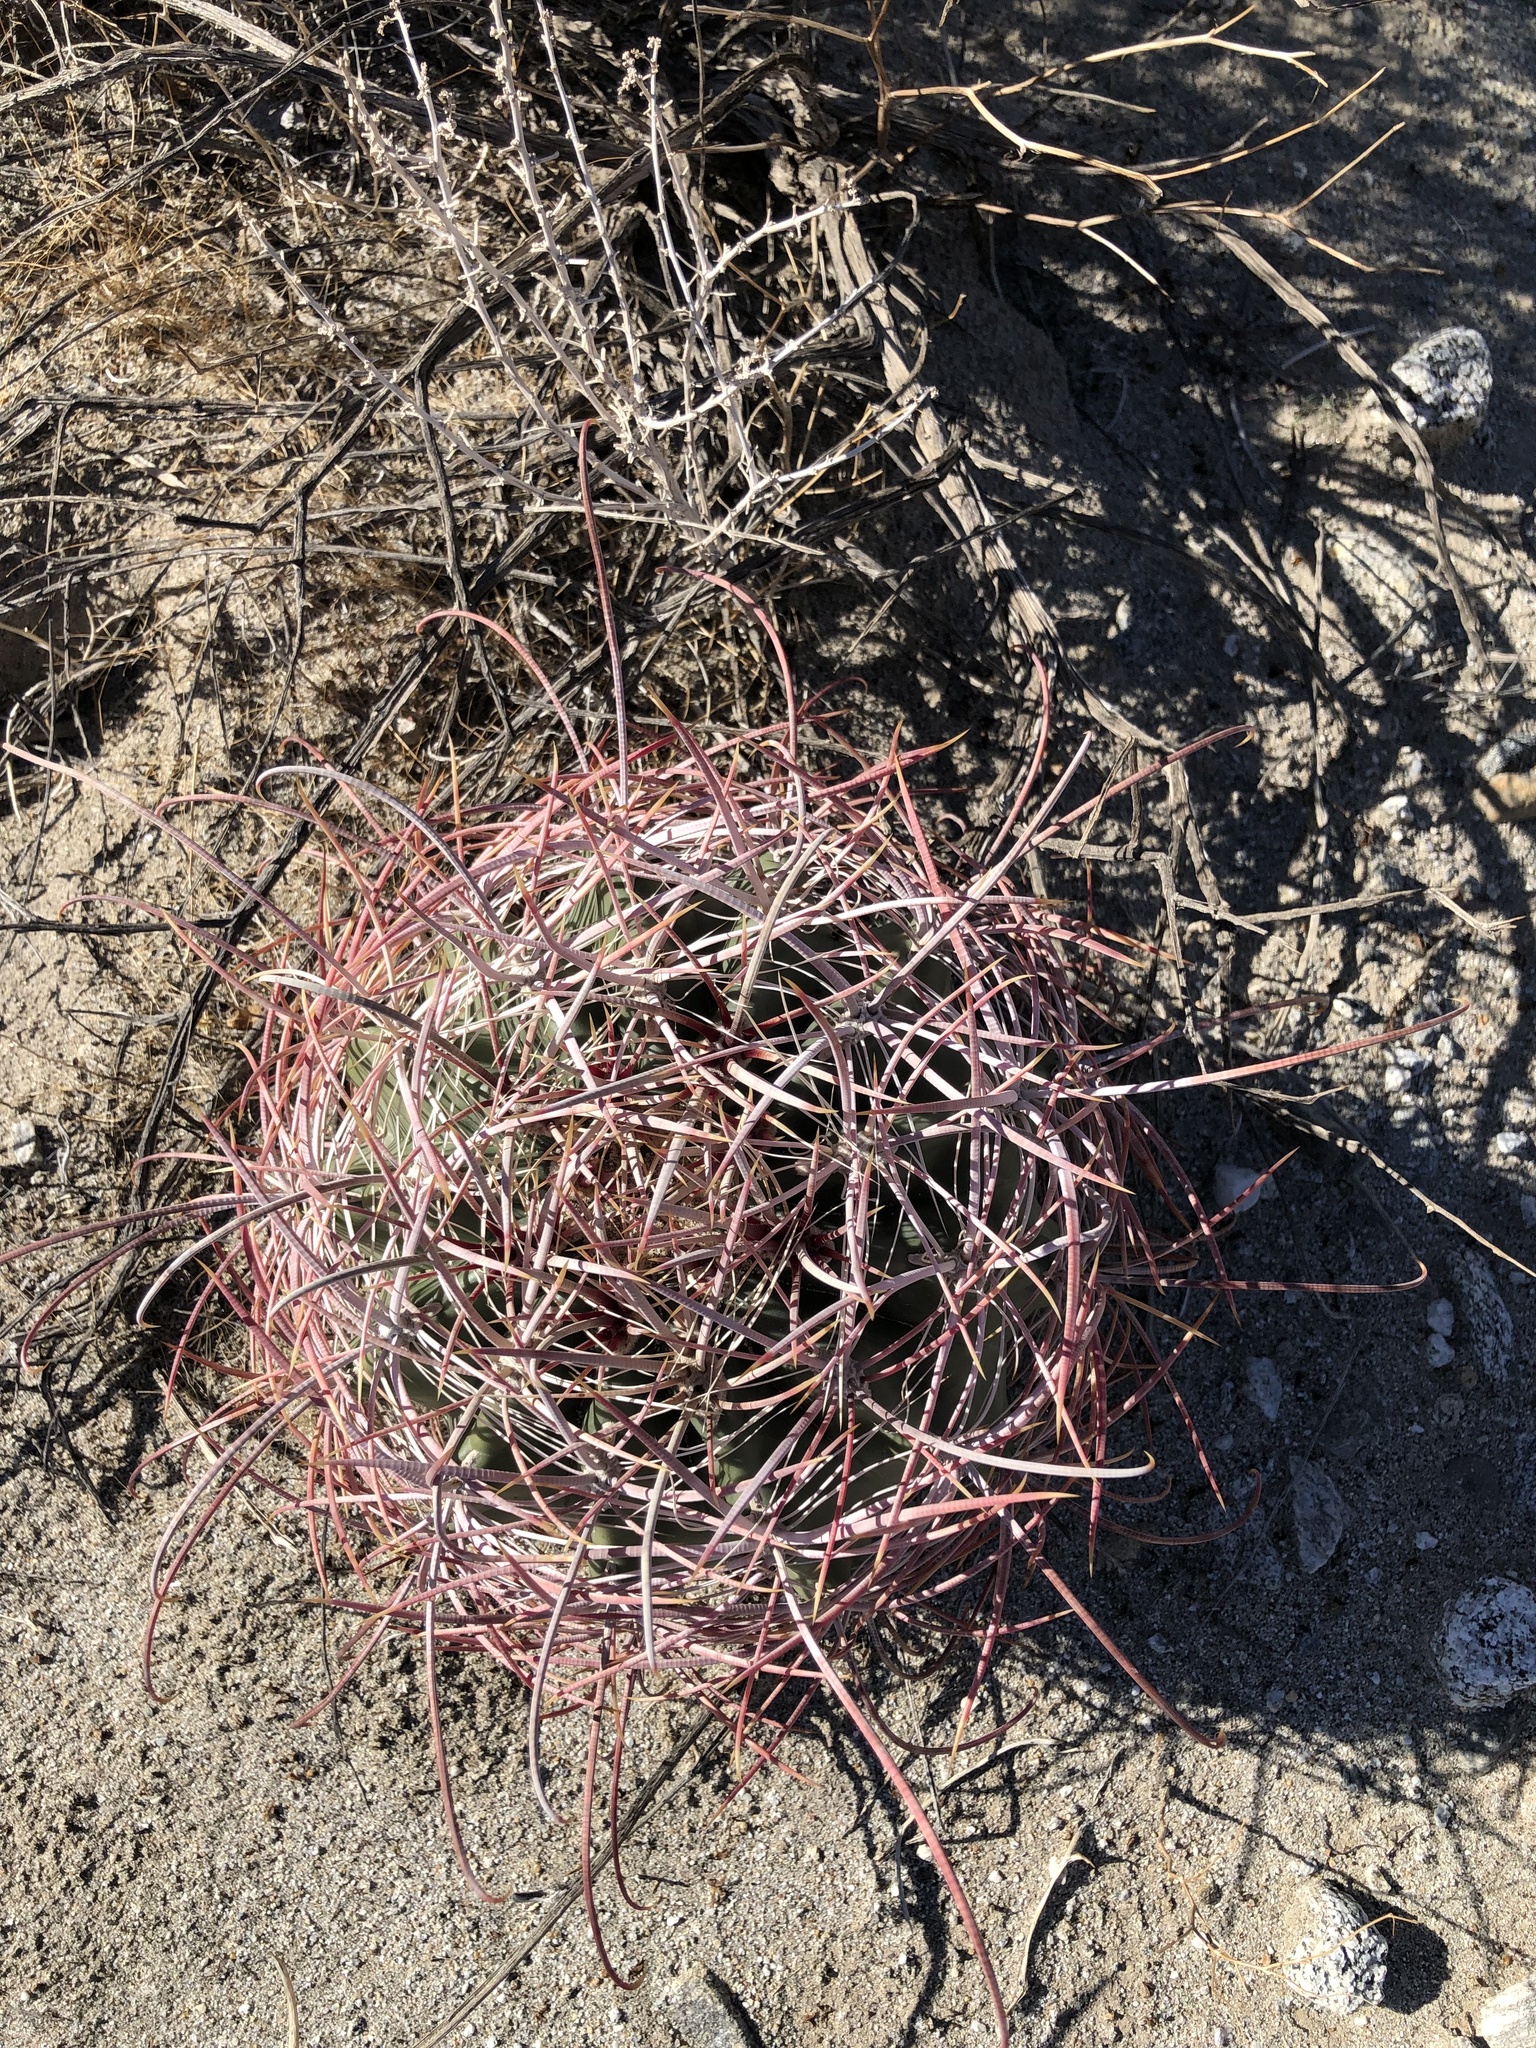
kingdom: Plantae
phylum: Tracheophyta
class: Magnoliopsida
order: Caryophyllales
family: Cactaceae
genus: Ferocactus
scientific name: Ferocactus cylindraceus
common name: California barrel cactus
